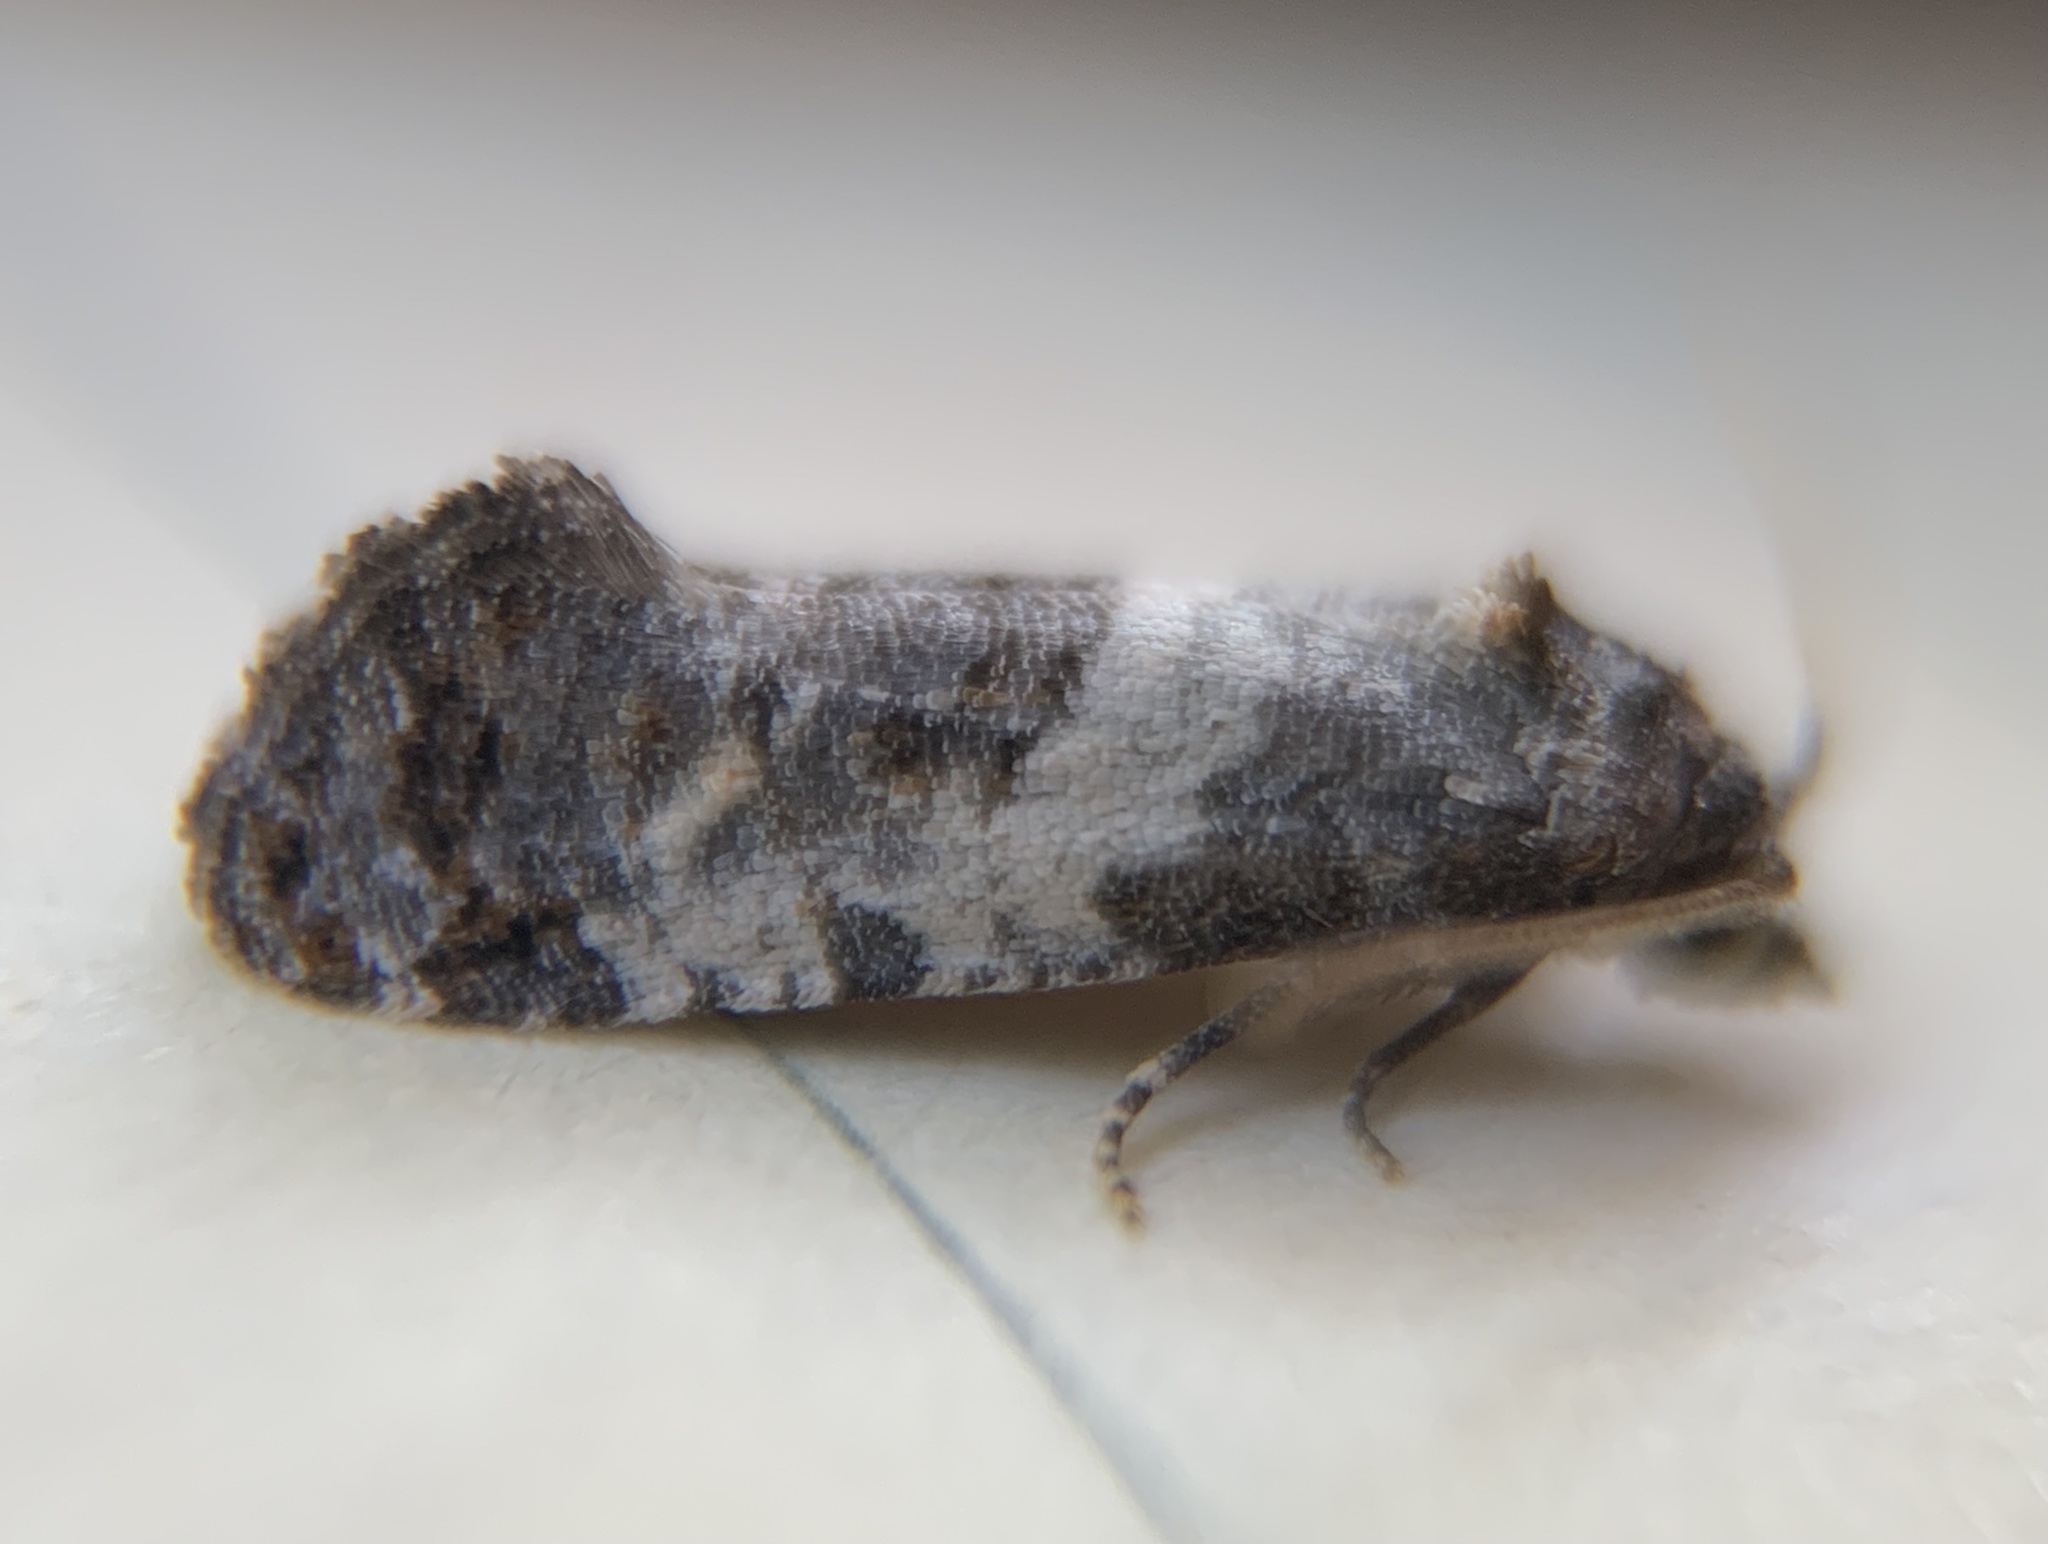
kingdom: Animalia
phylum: Arthropoda
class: Insecta
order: Lepidoptera
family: Tortricidae
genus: Rudenia
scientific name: Rudenia leguminana
